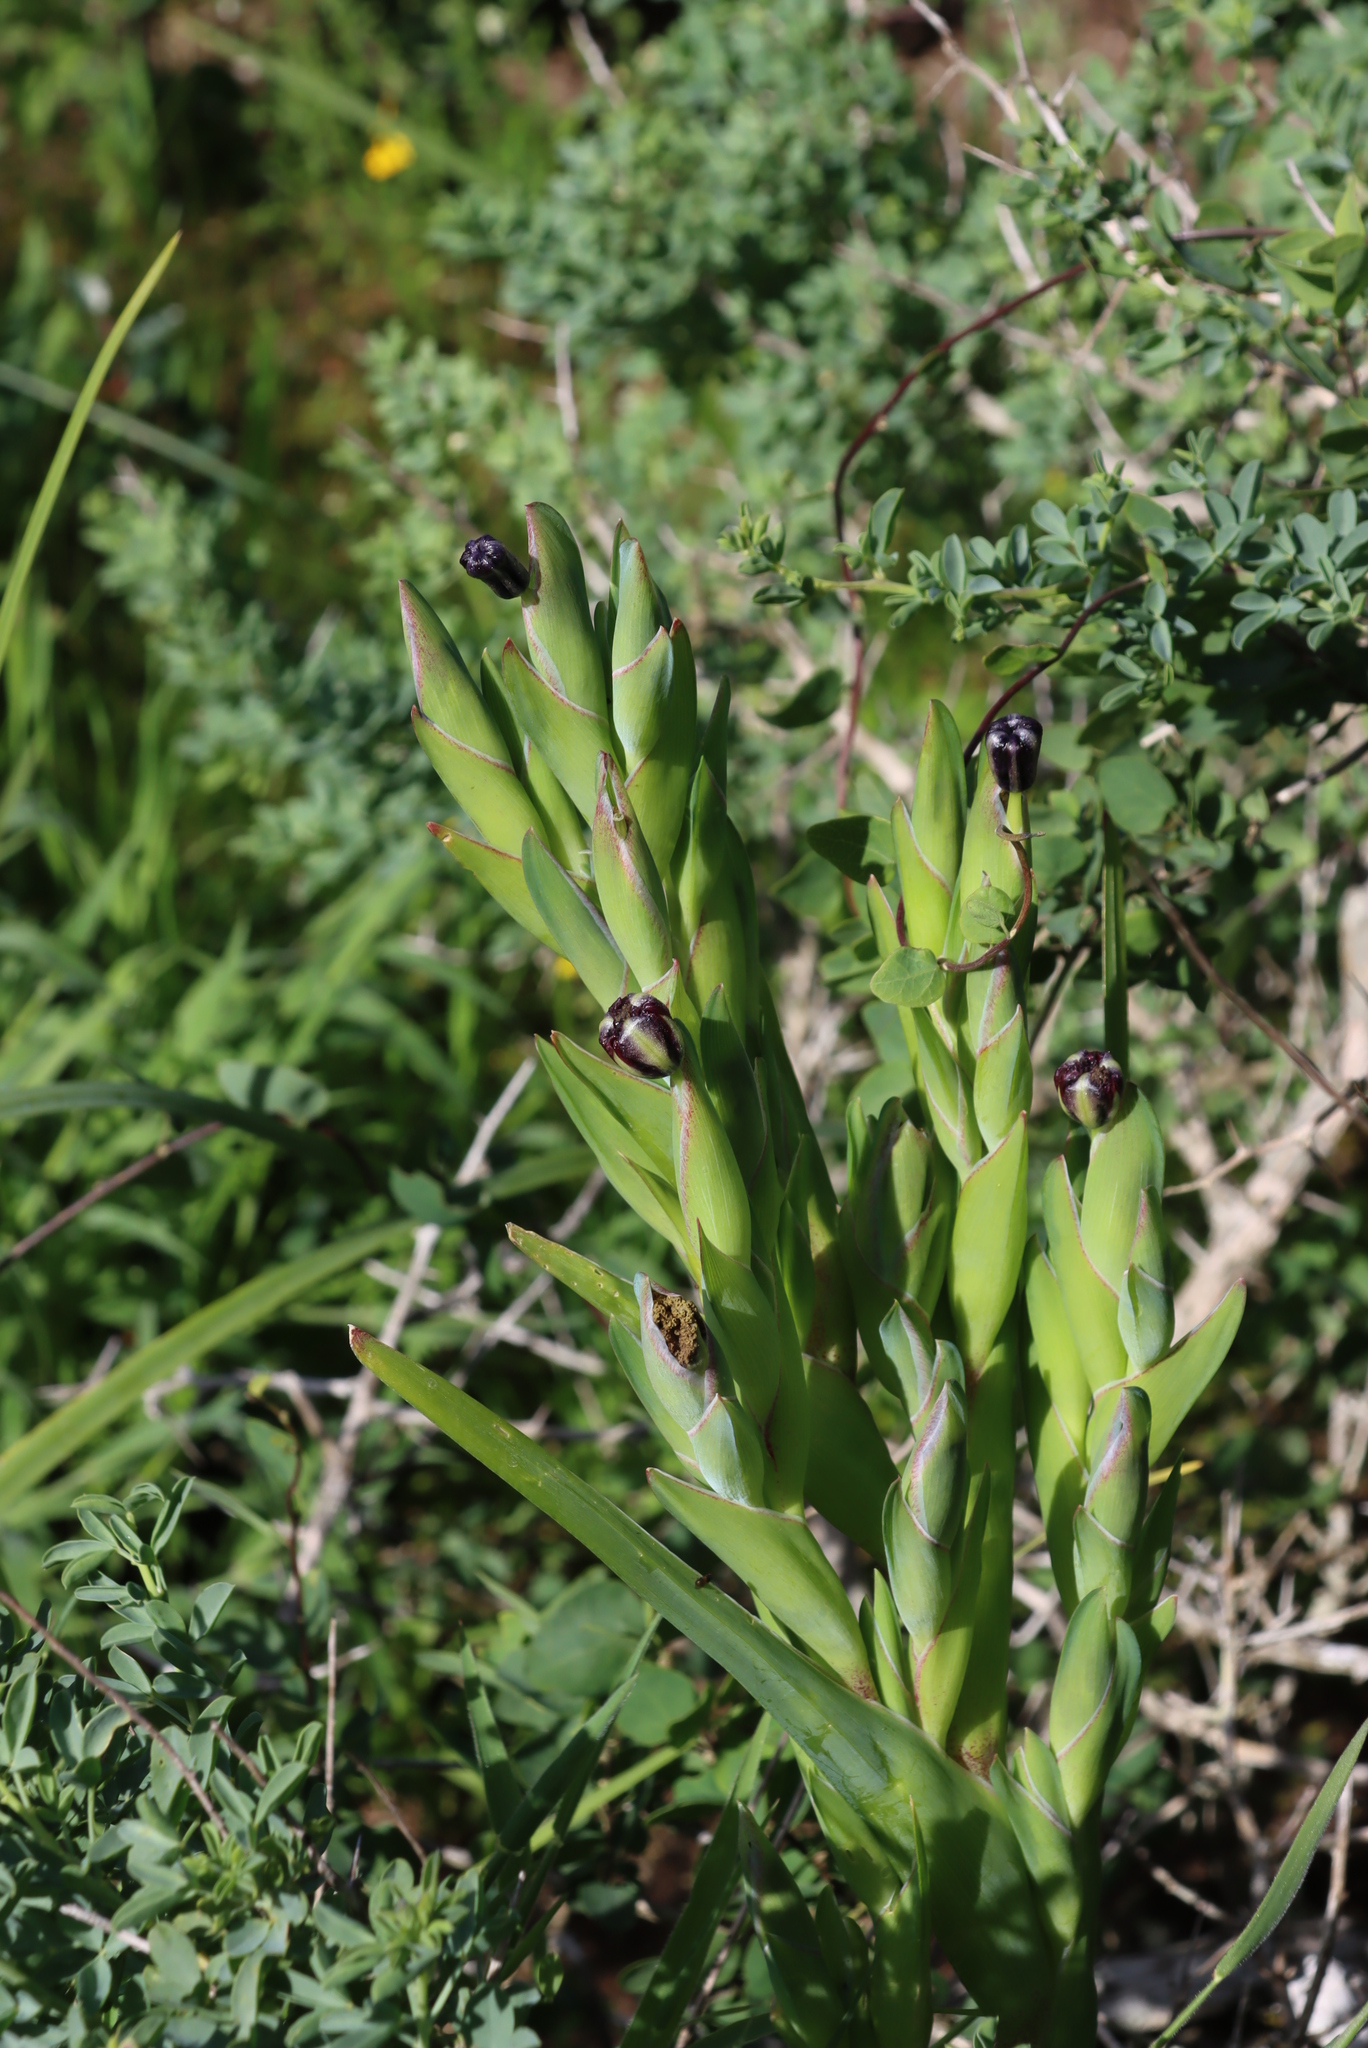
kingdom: Plantae
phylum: Tracheophyta
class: Liliopsida
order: Asparagales
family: Iridaceae
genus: Ferraria
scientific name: Ferraria crispa
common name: Black-flag
